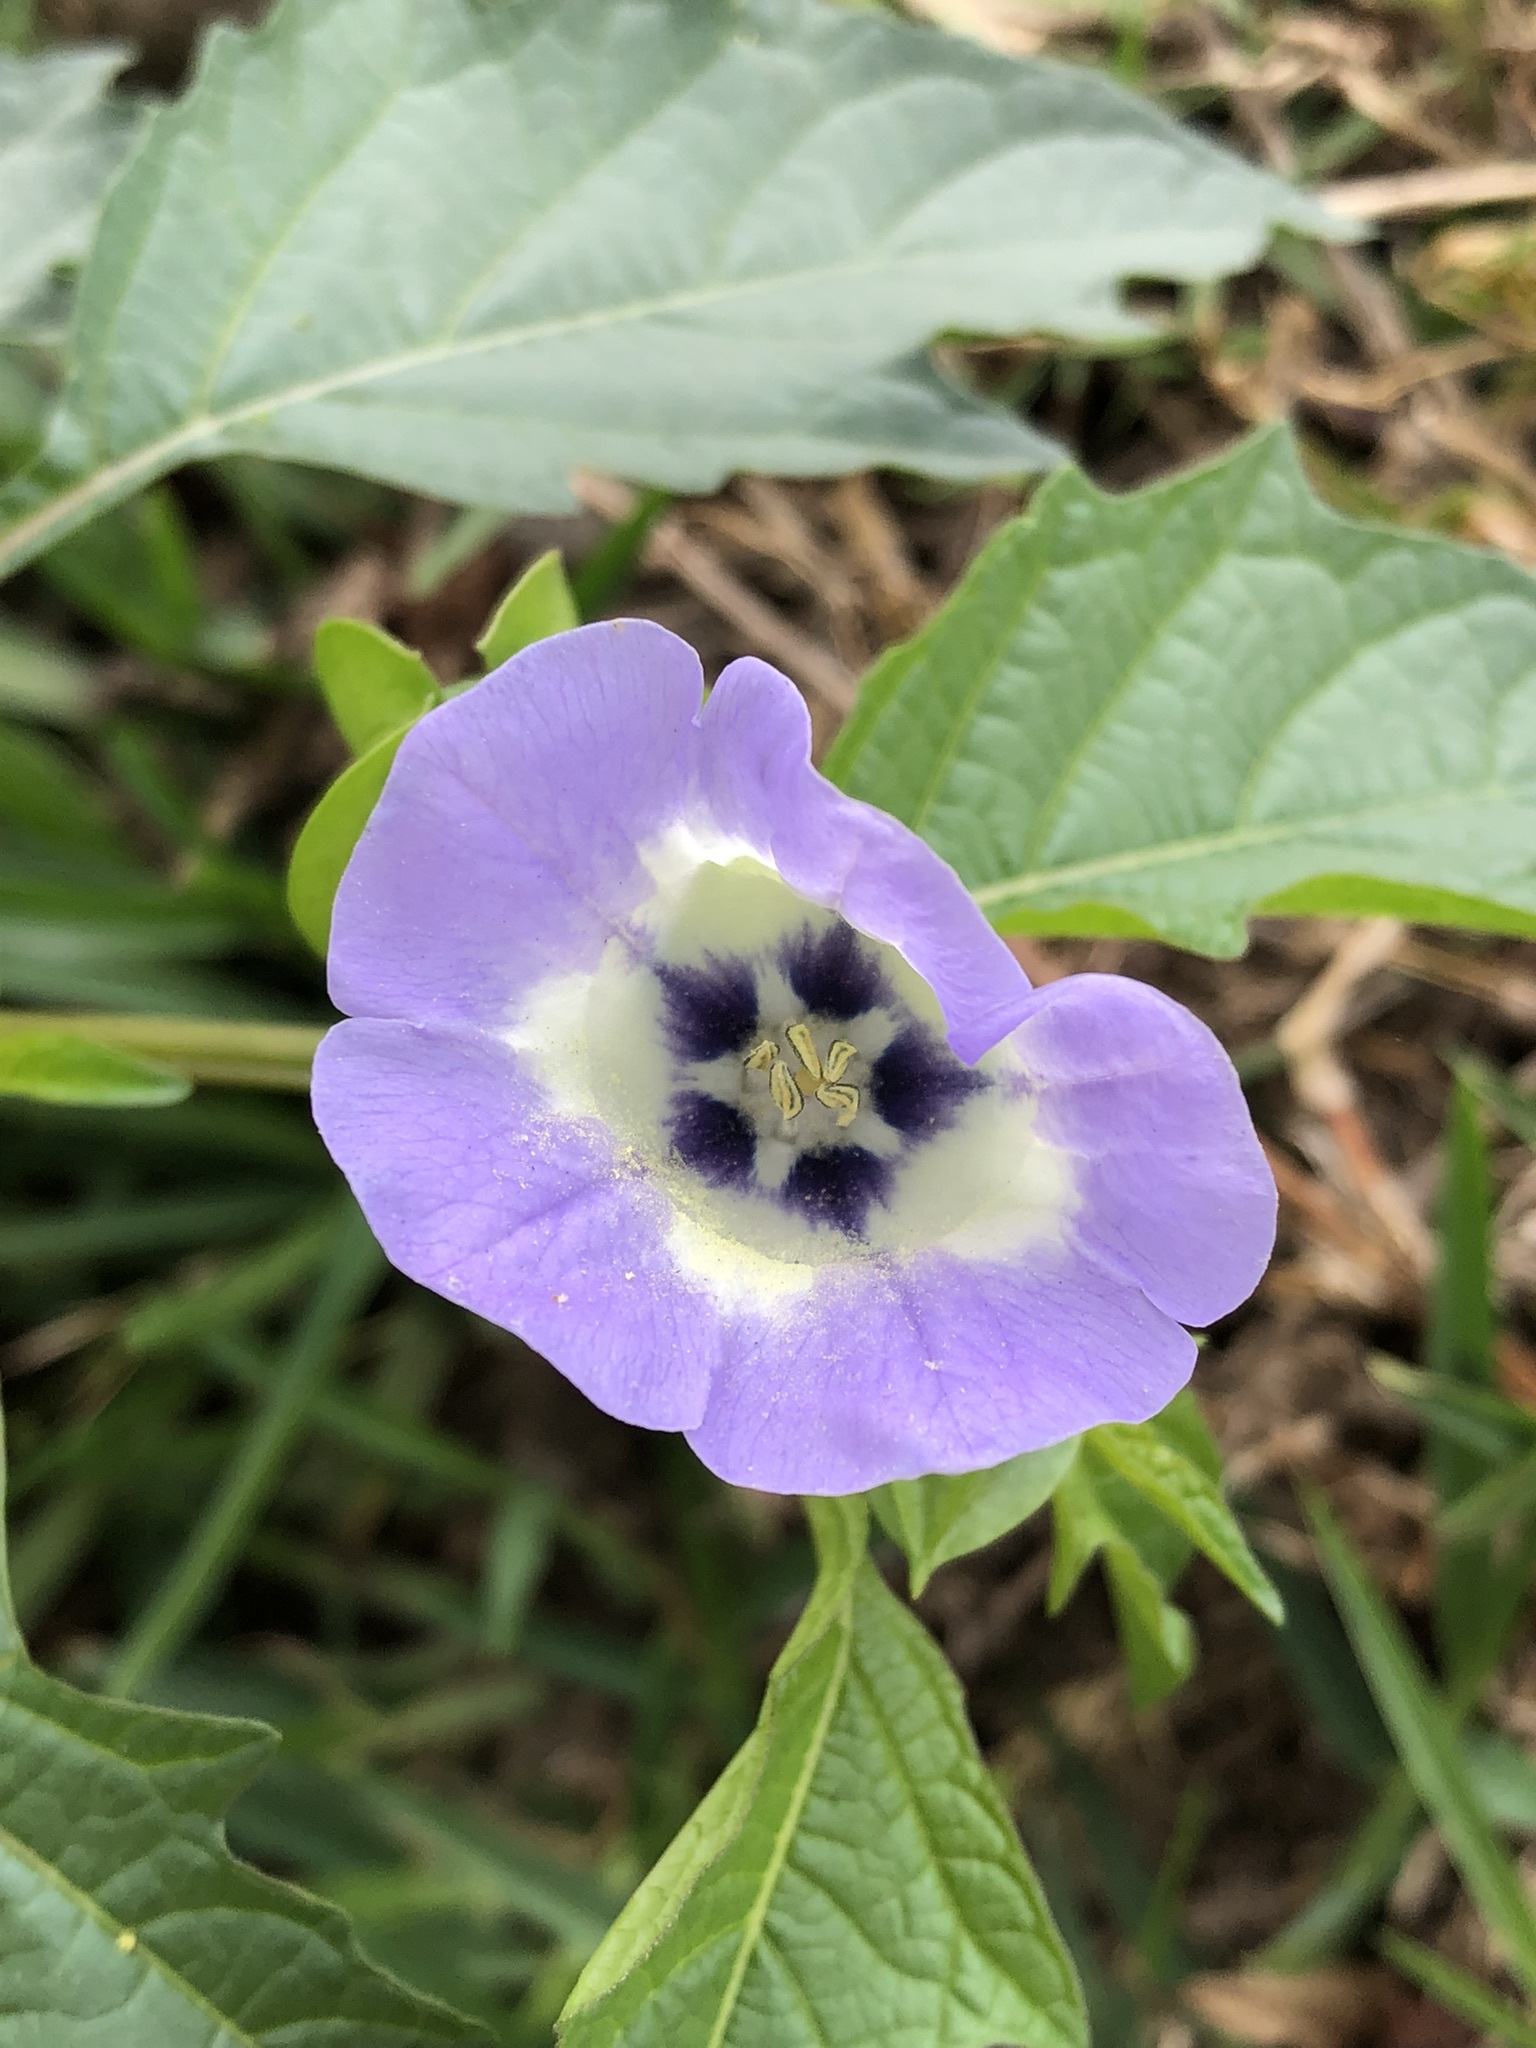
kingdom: Plantae
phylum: Tracheophyta
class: Magnoliopsida
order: Solanales
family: Solanaceae
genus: Nicandra
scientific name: Nicandra physalodes
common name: Apple-of-peru
